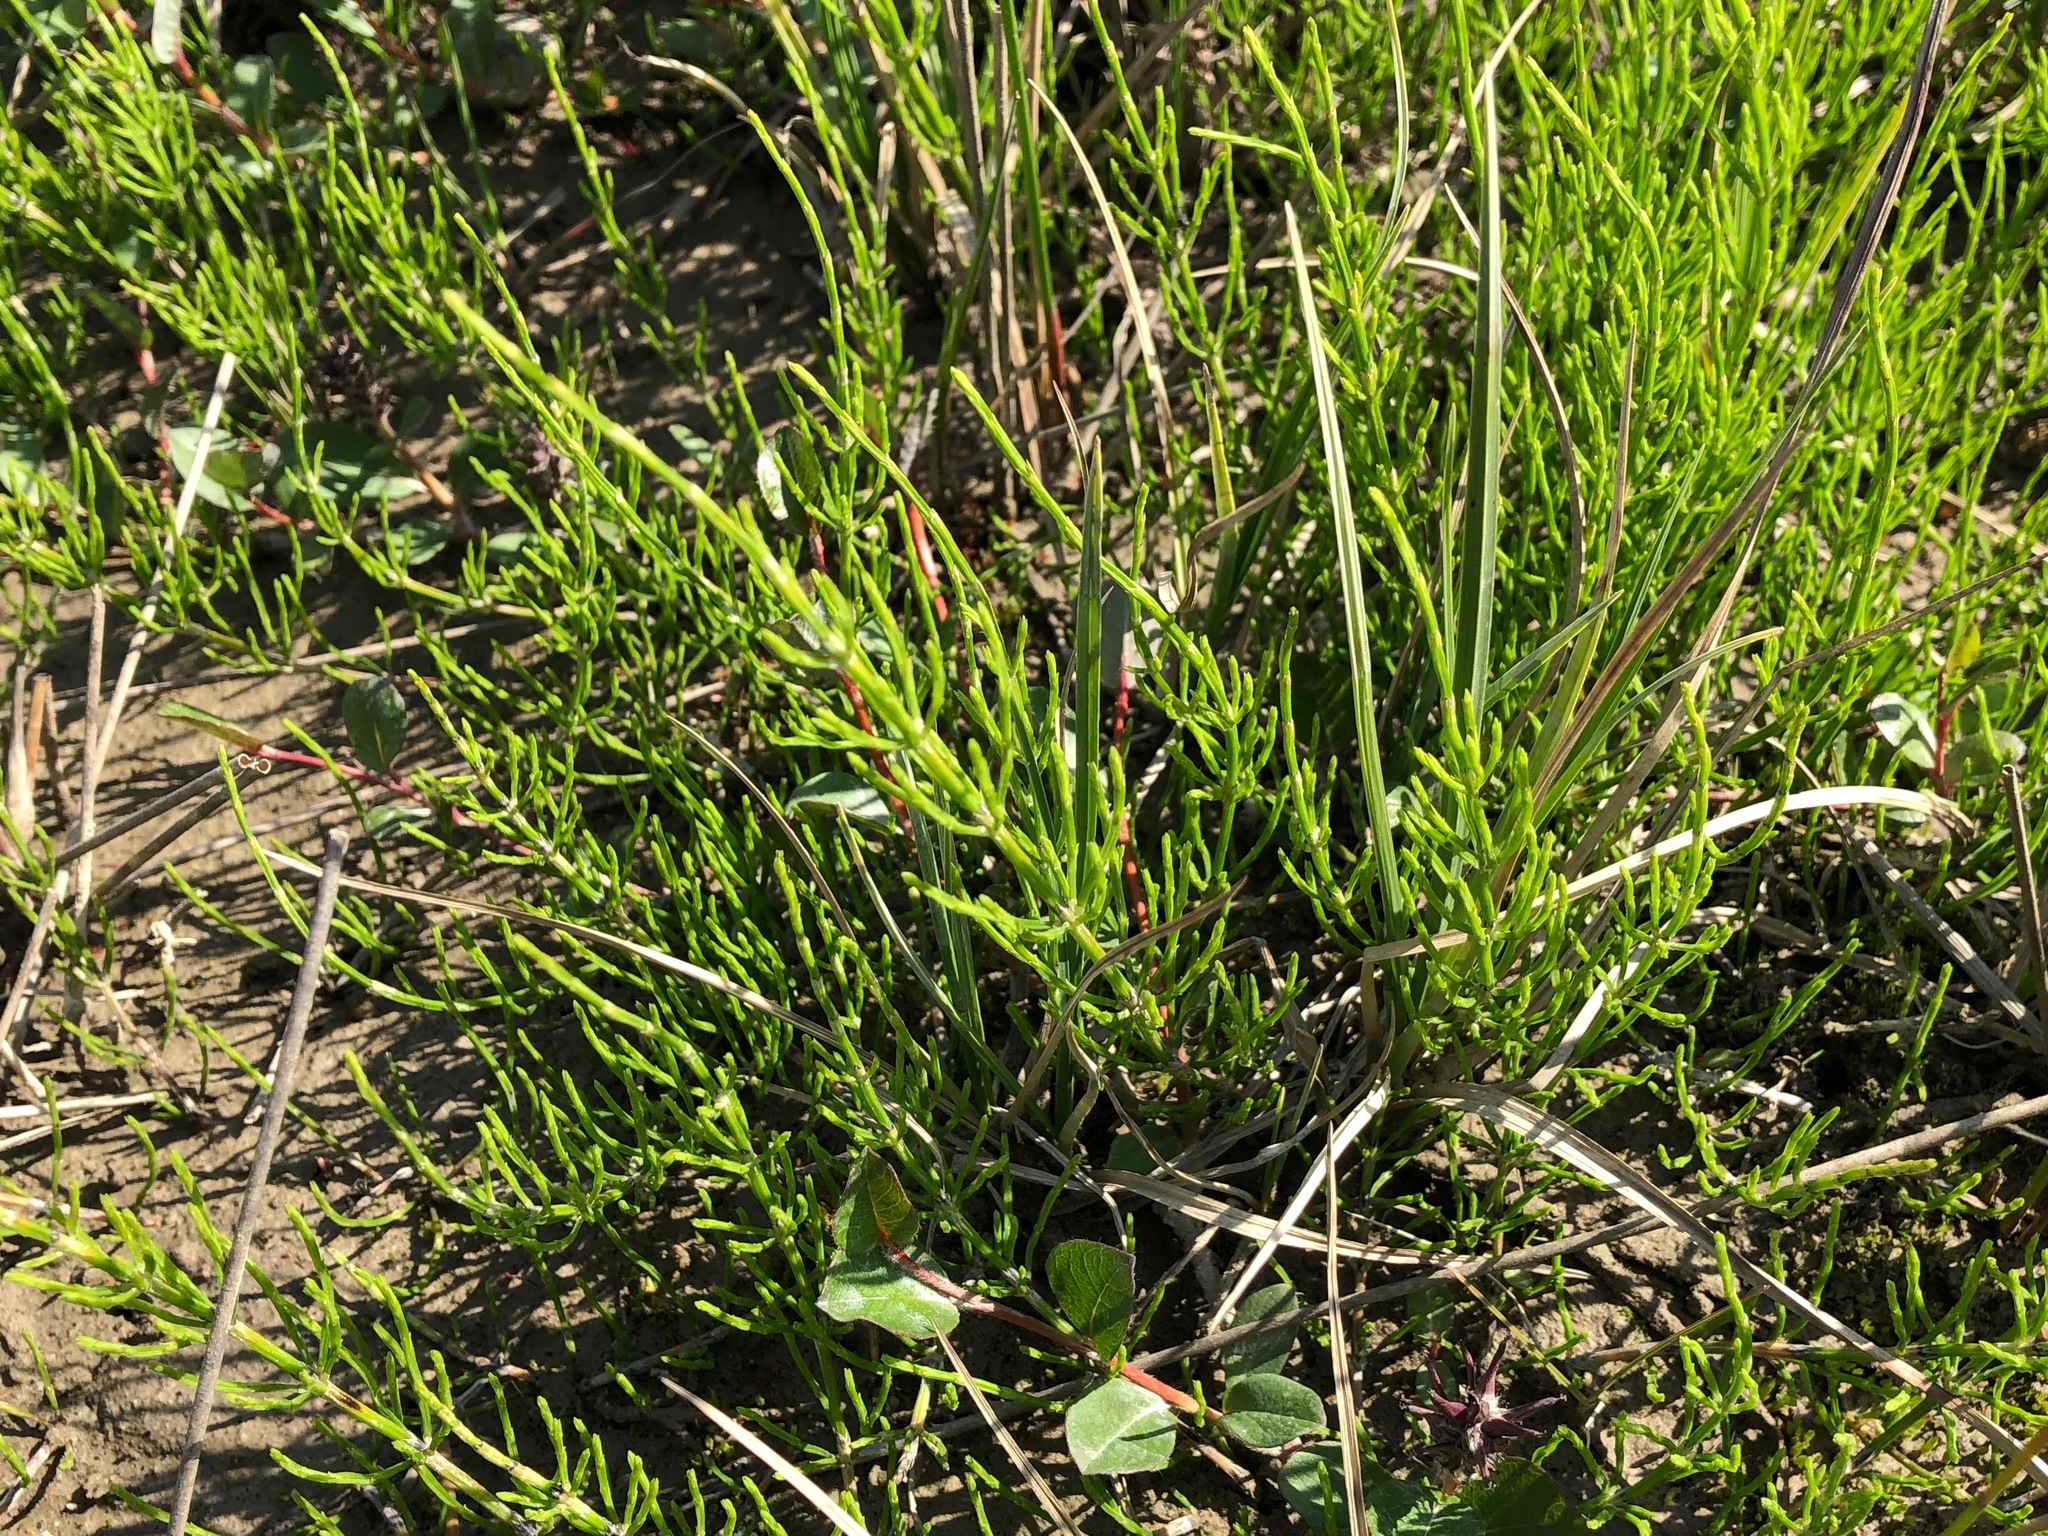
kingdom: Plantae
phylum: Tracheophyta
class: Polypodiopsida
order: Equisetales
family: Equisetaceae
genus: Equisetum
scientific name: Equisetum arvense
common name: Field horsetail
